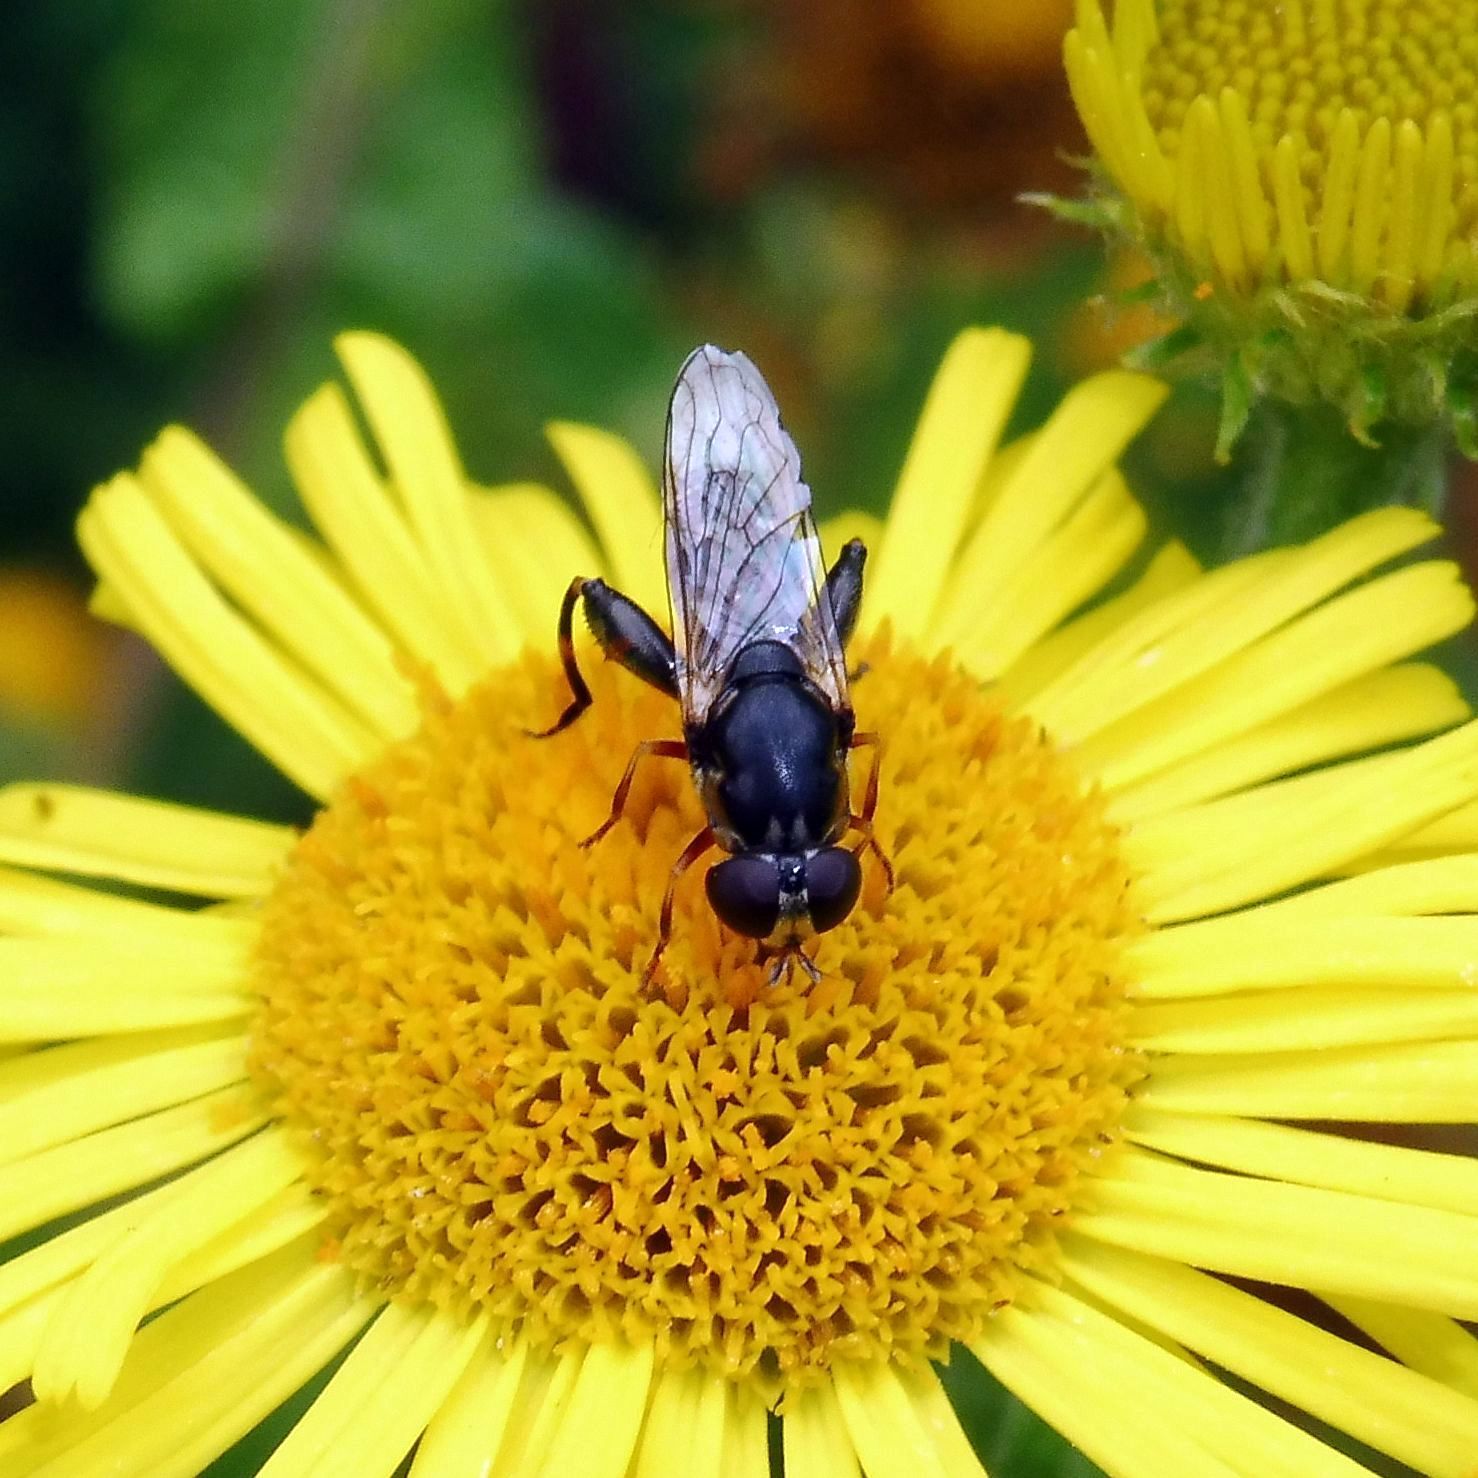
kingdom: Animalia
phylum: Arthropoda
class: Insecta
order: Diptera
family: Syrphidae
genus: Syritta
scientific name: Syritta pipiens
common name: Hover fly
